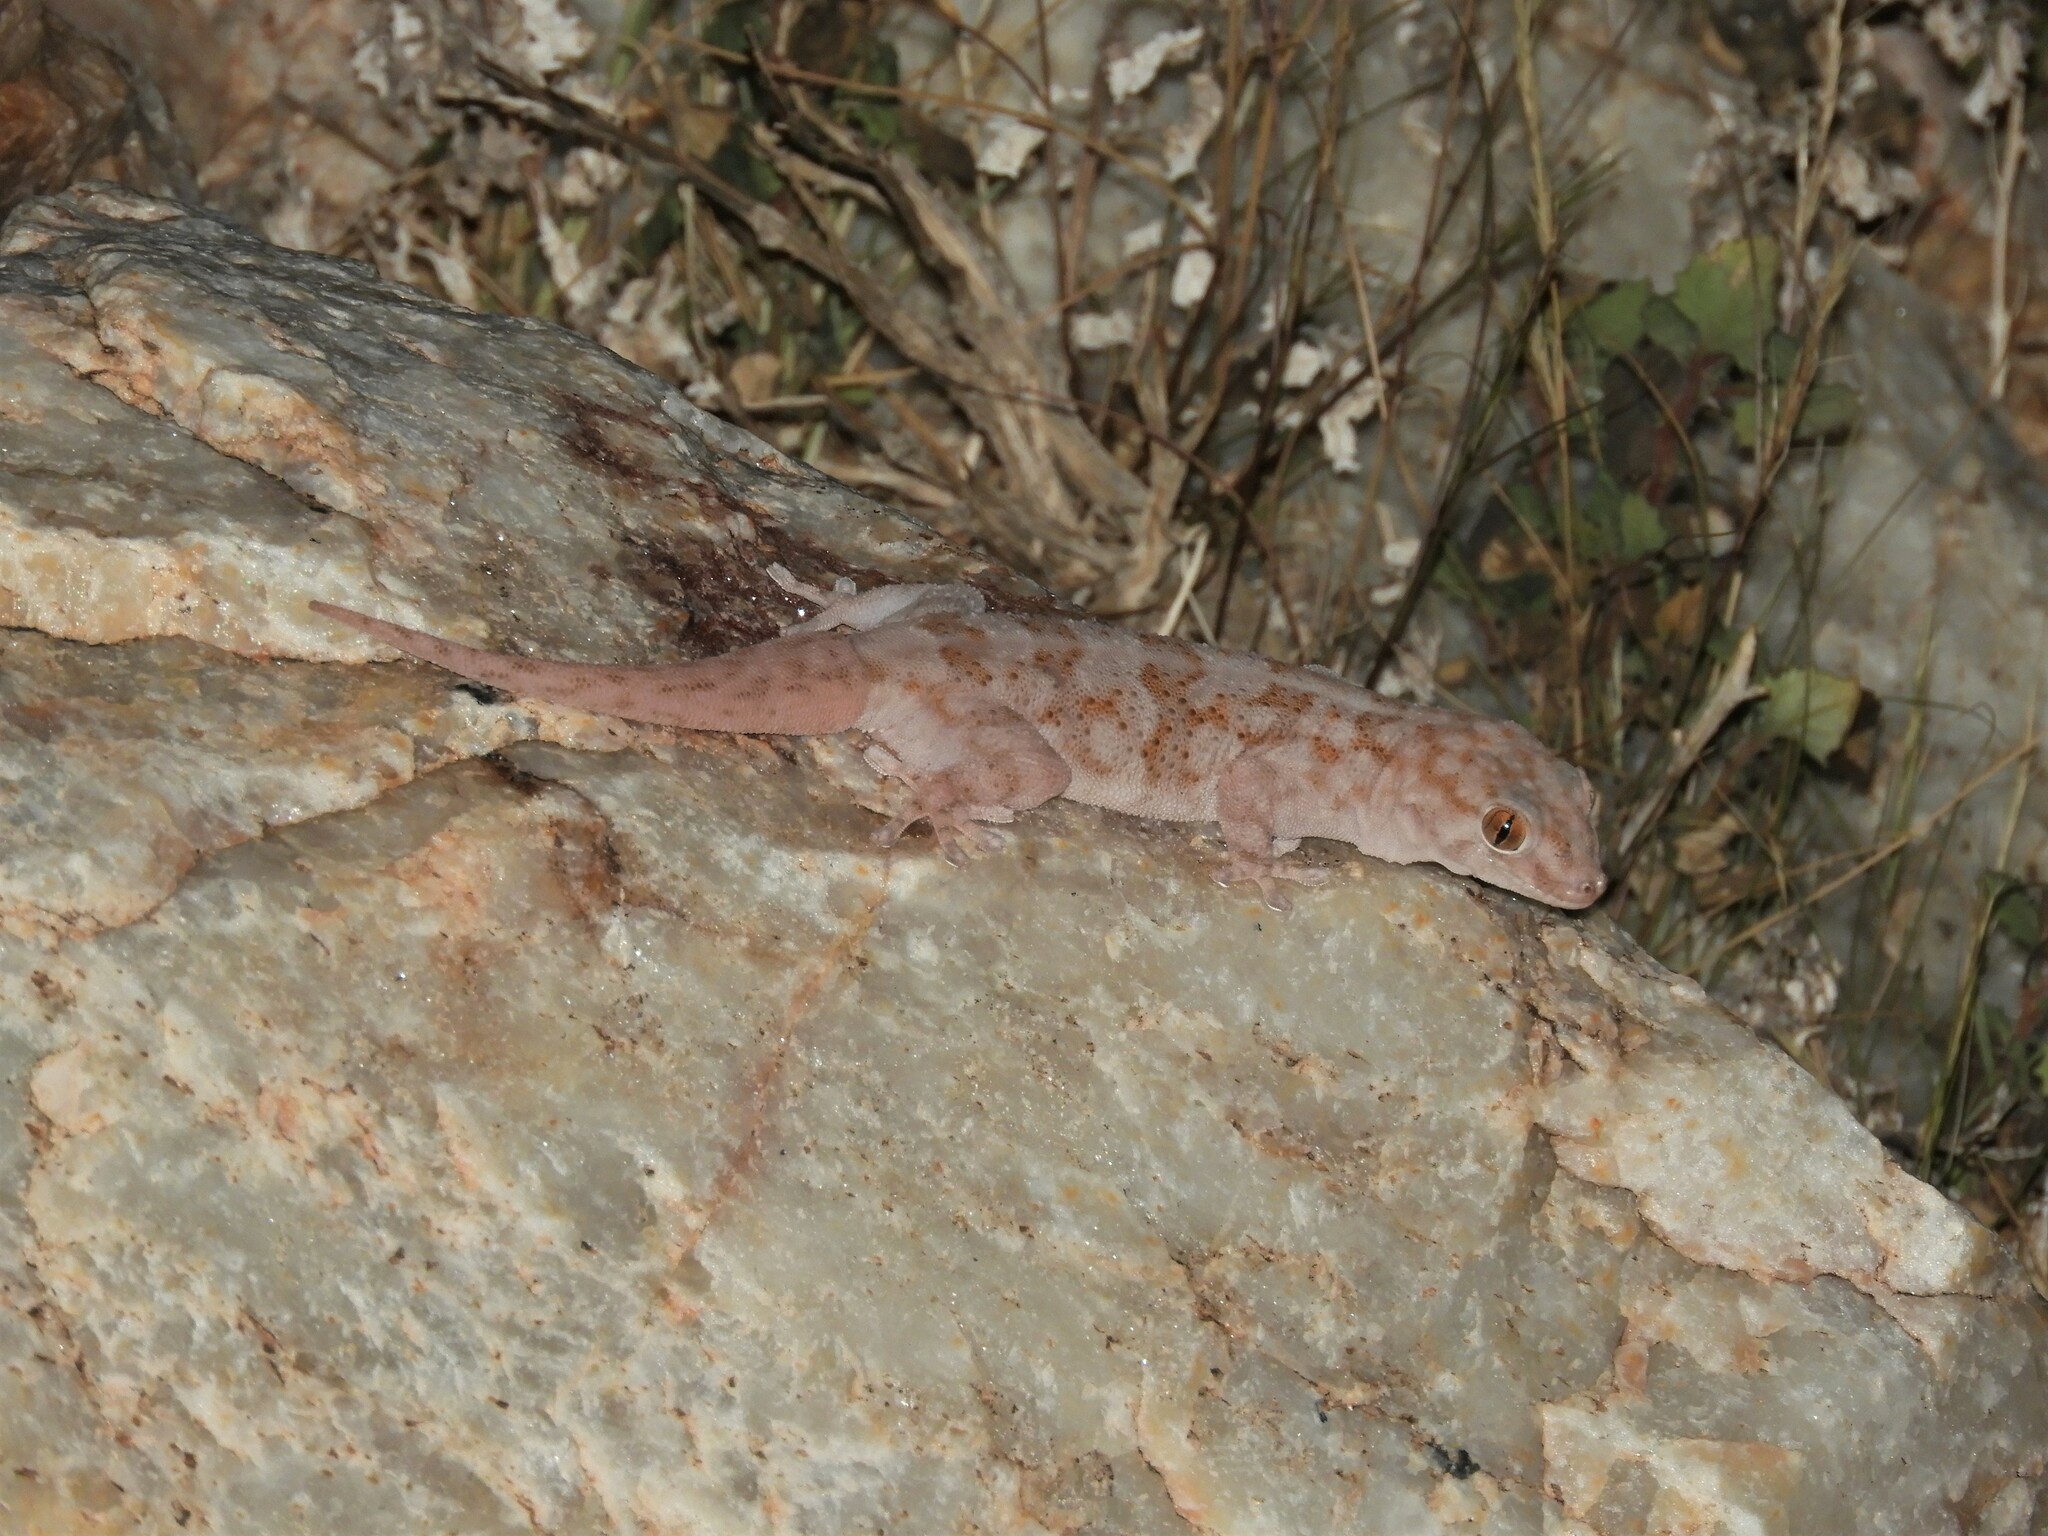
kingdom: Animalia
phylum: Chordata
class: Squamata
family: Gekkonidae
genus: Pachydactylus
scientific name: Pachydactylus haackei
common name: Haacke's gecko
